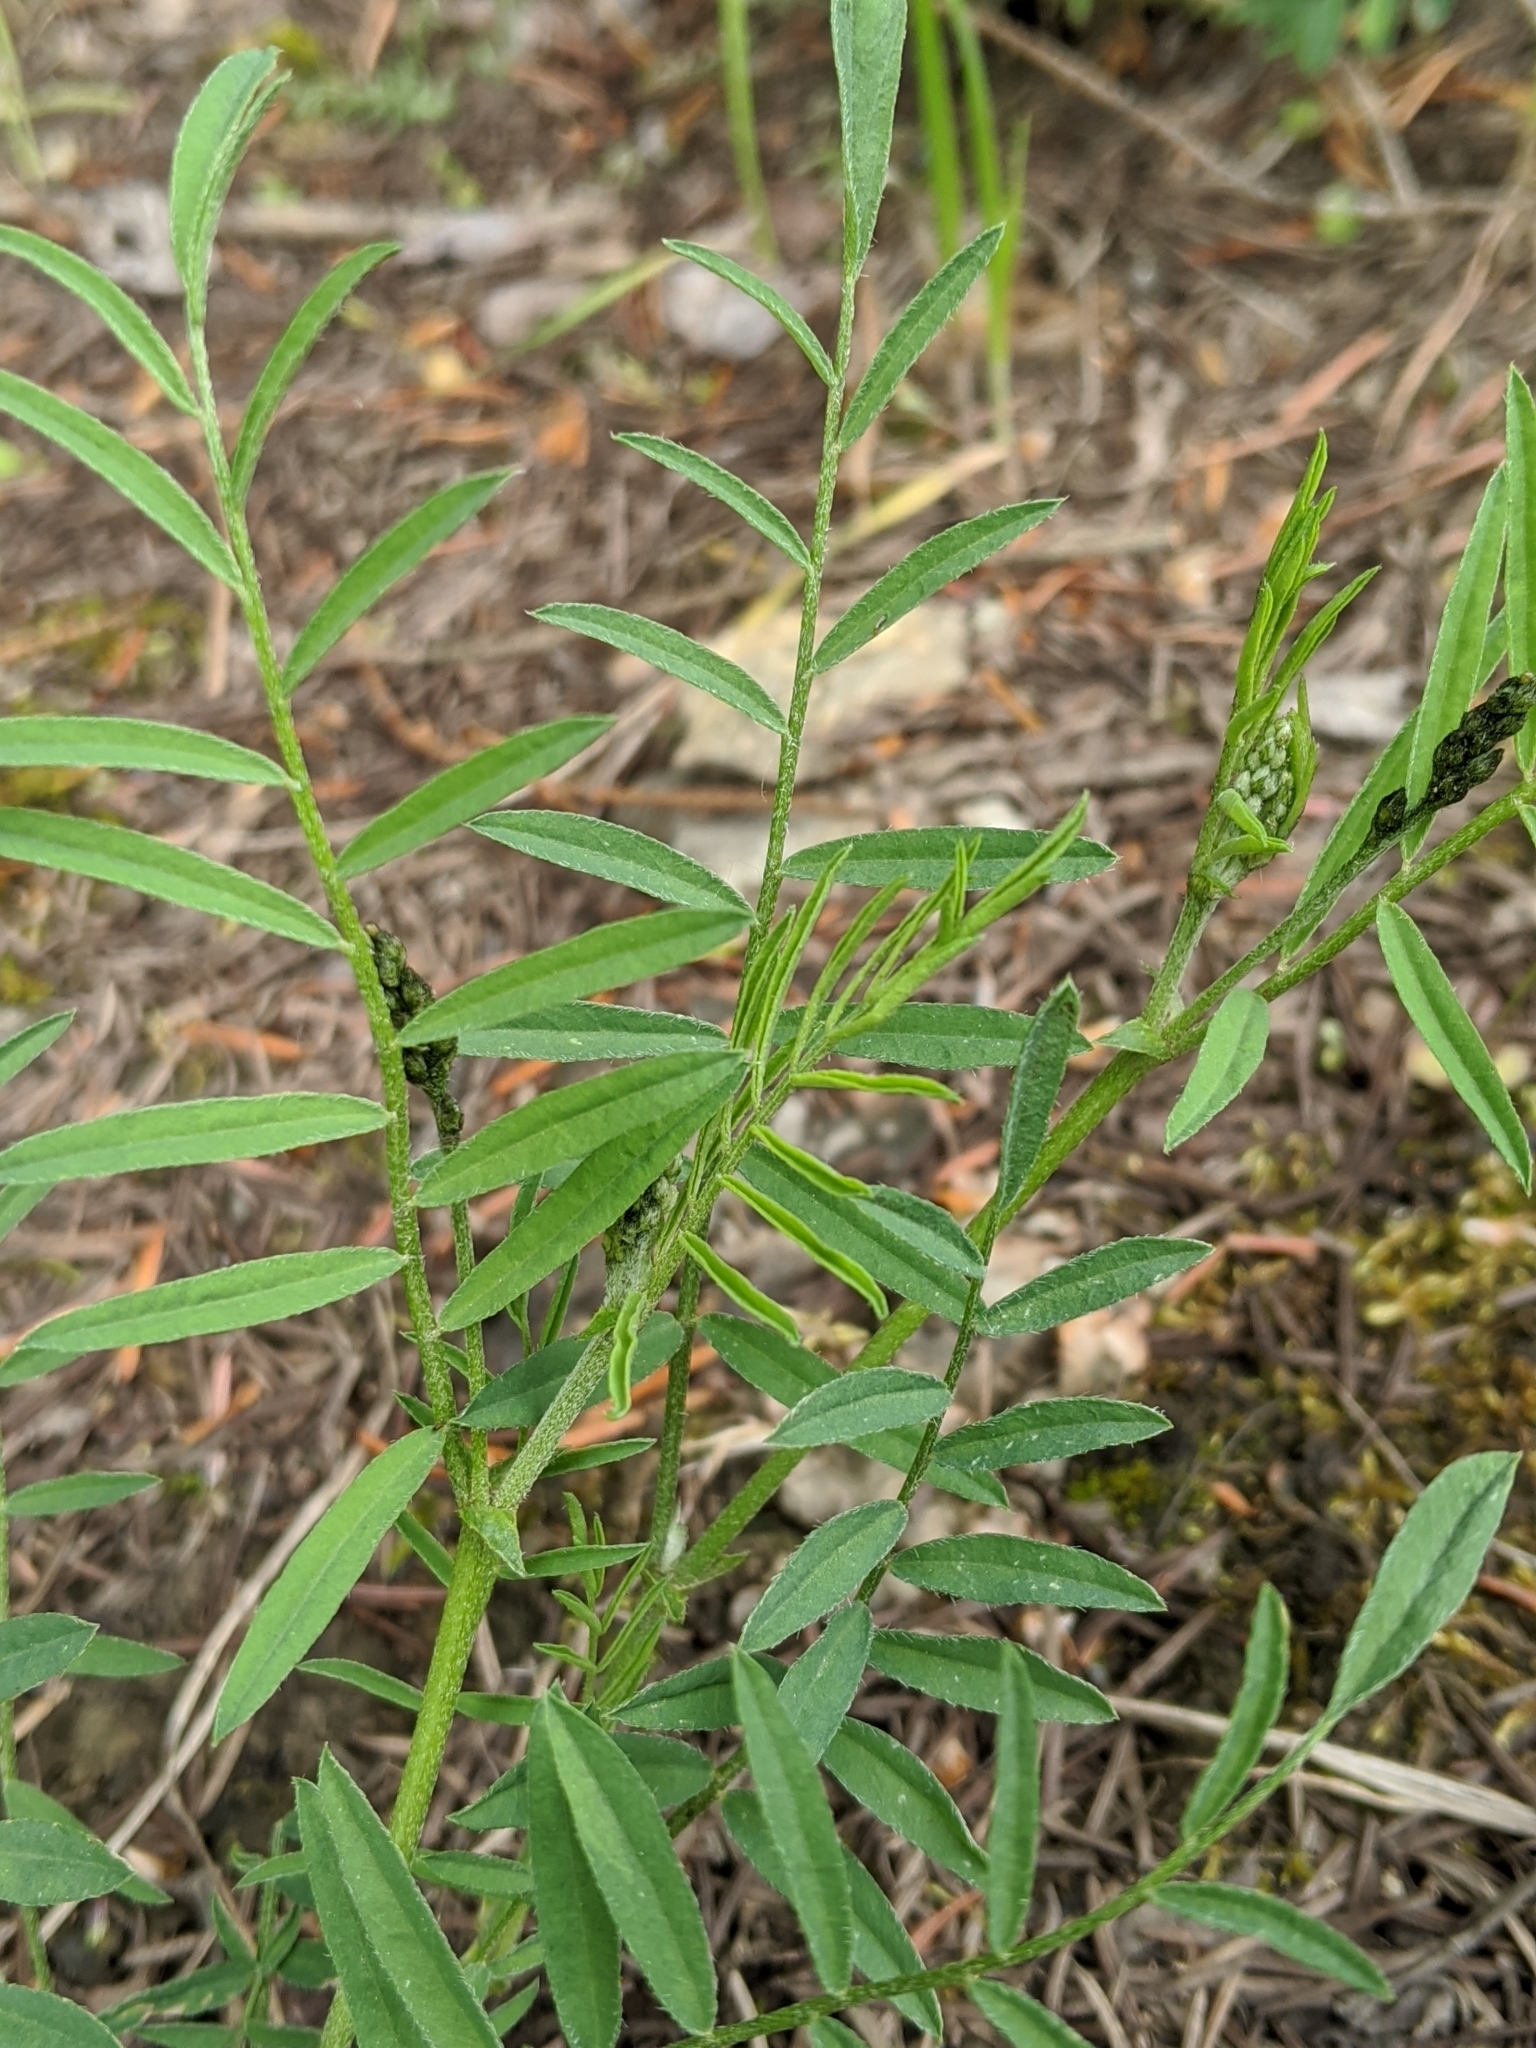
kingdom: Plantae
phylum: Tracheophyta
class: Magnoliopsida
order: Fabales
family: Fabaceae
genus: Astragalus
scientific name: Astragalus miser
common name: Timber milkvetch
